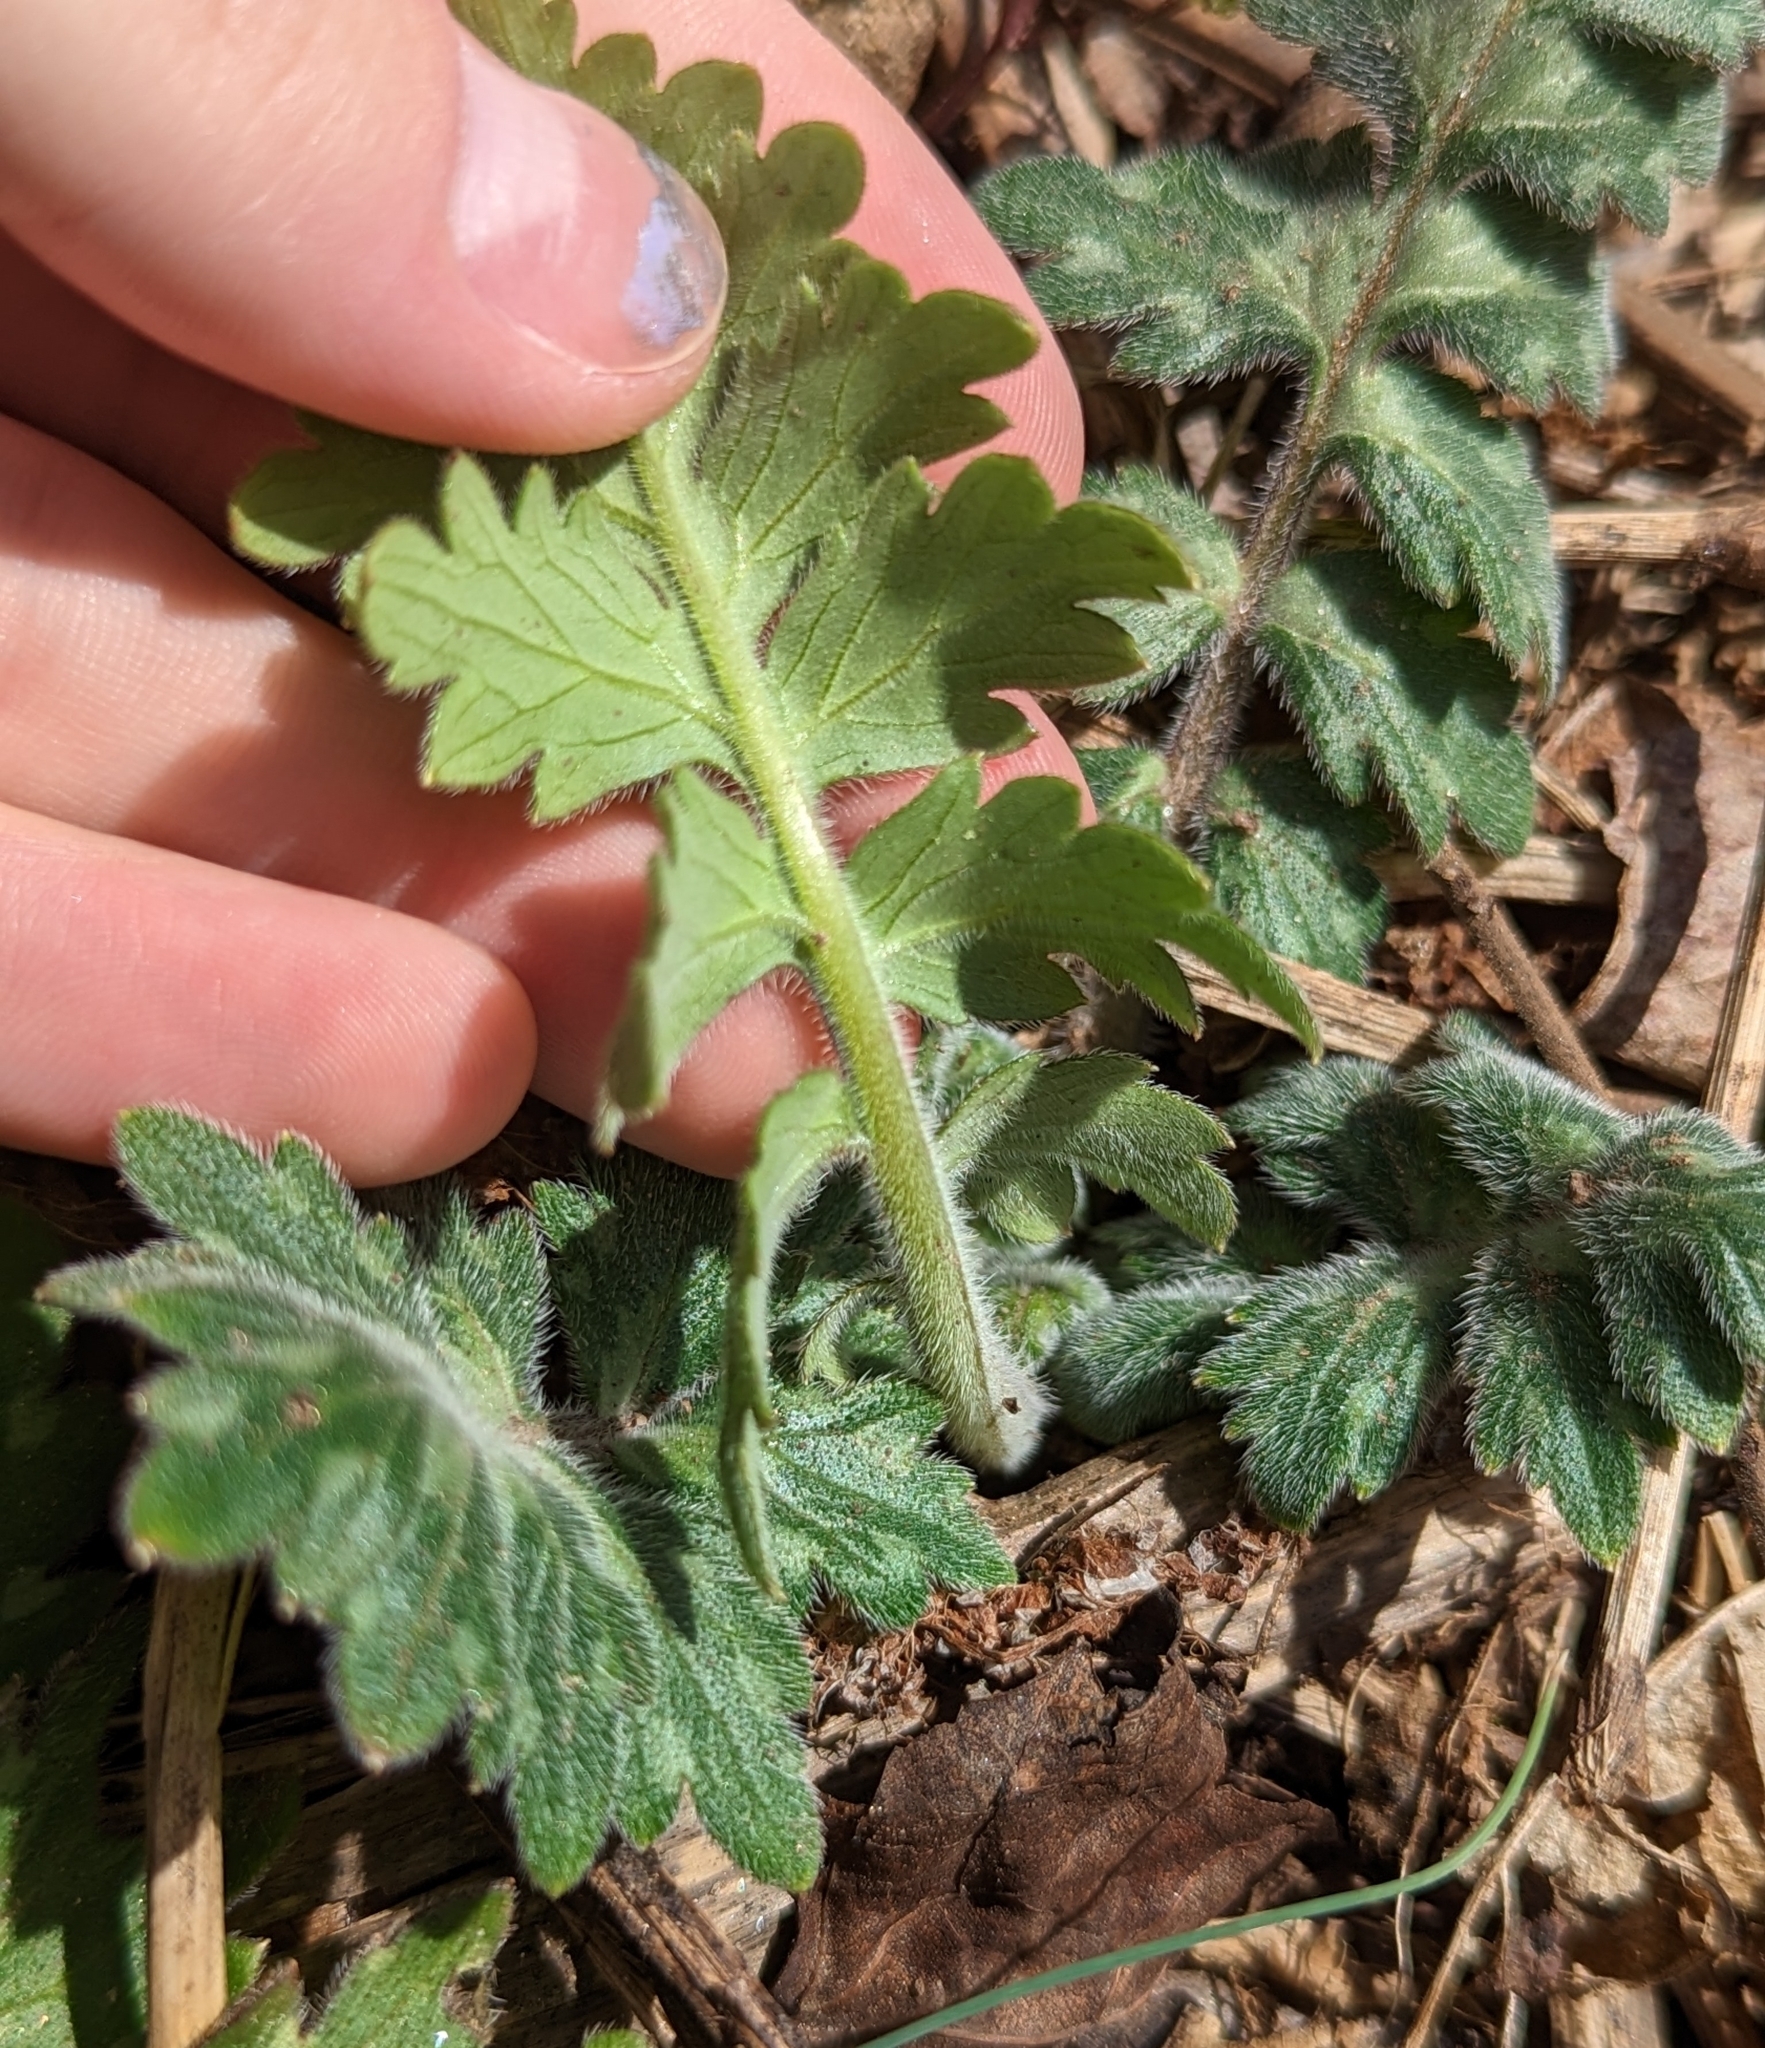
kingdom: Plantae
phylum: Tracheophyta
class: Magnoliopsida
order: Boraginales
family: Hydrophyllaceae
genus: Hydrophyllum
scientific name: Hydrophyllum macrophyllum
